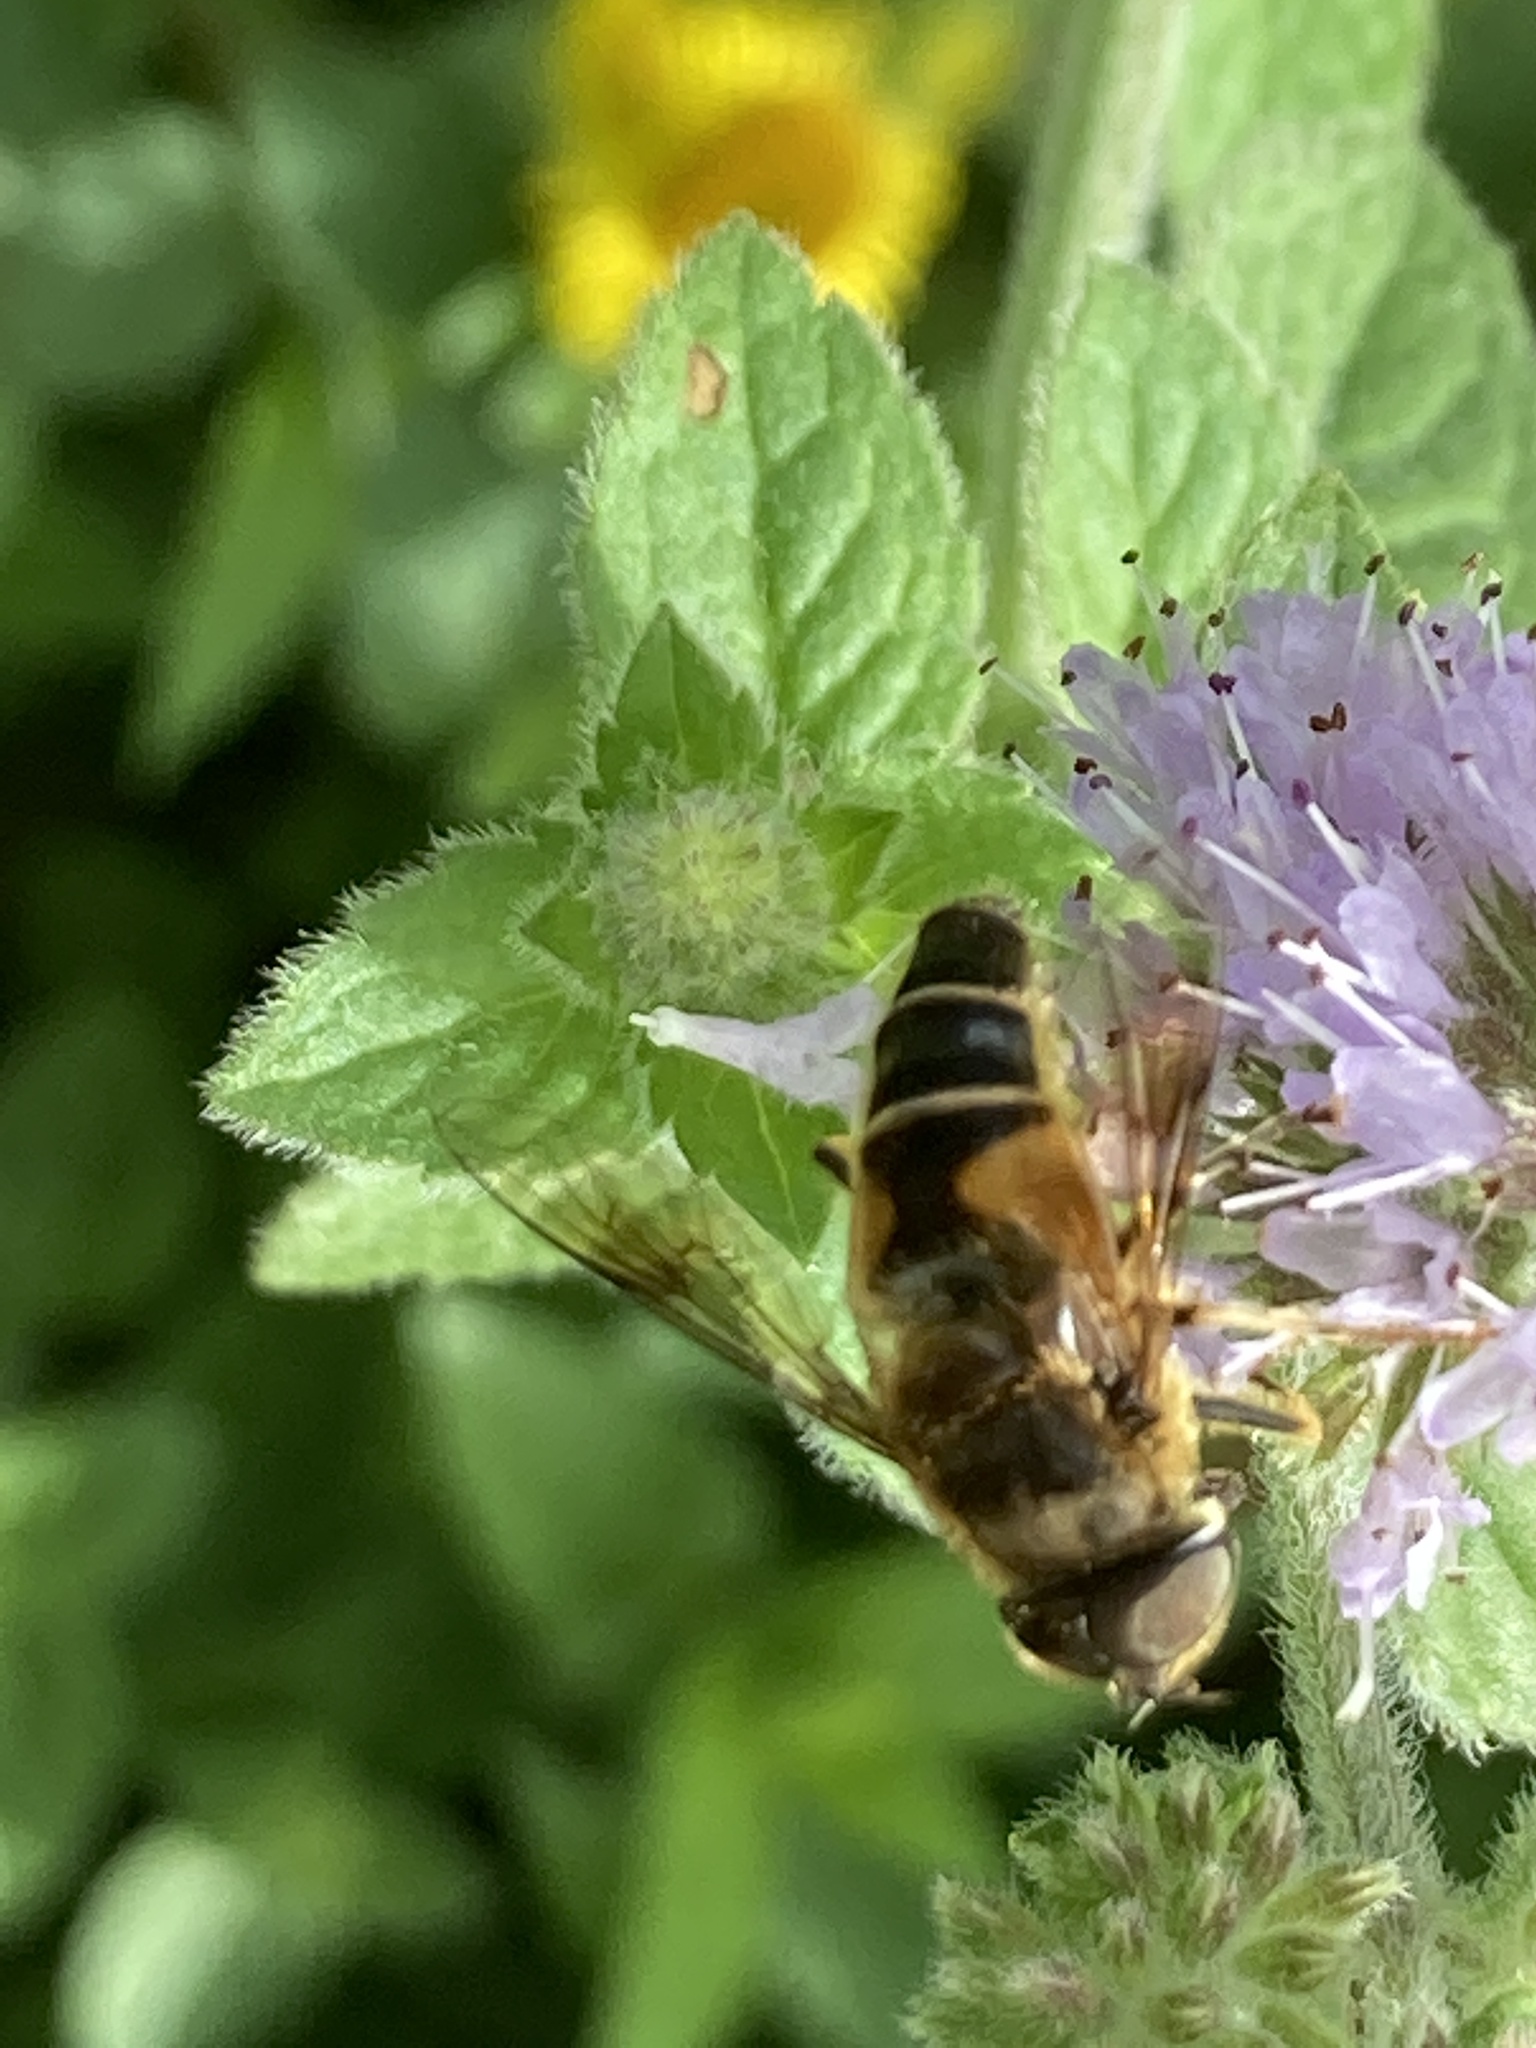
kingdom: Animalia
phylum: Arthropoda
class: Insecta
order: Diptera
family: Syrphidae
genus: Eristalis
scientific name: Eristalis pertinax
